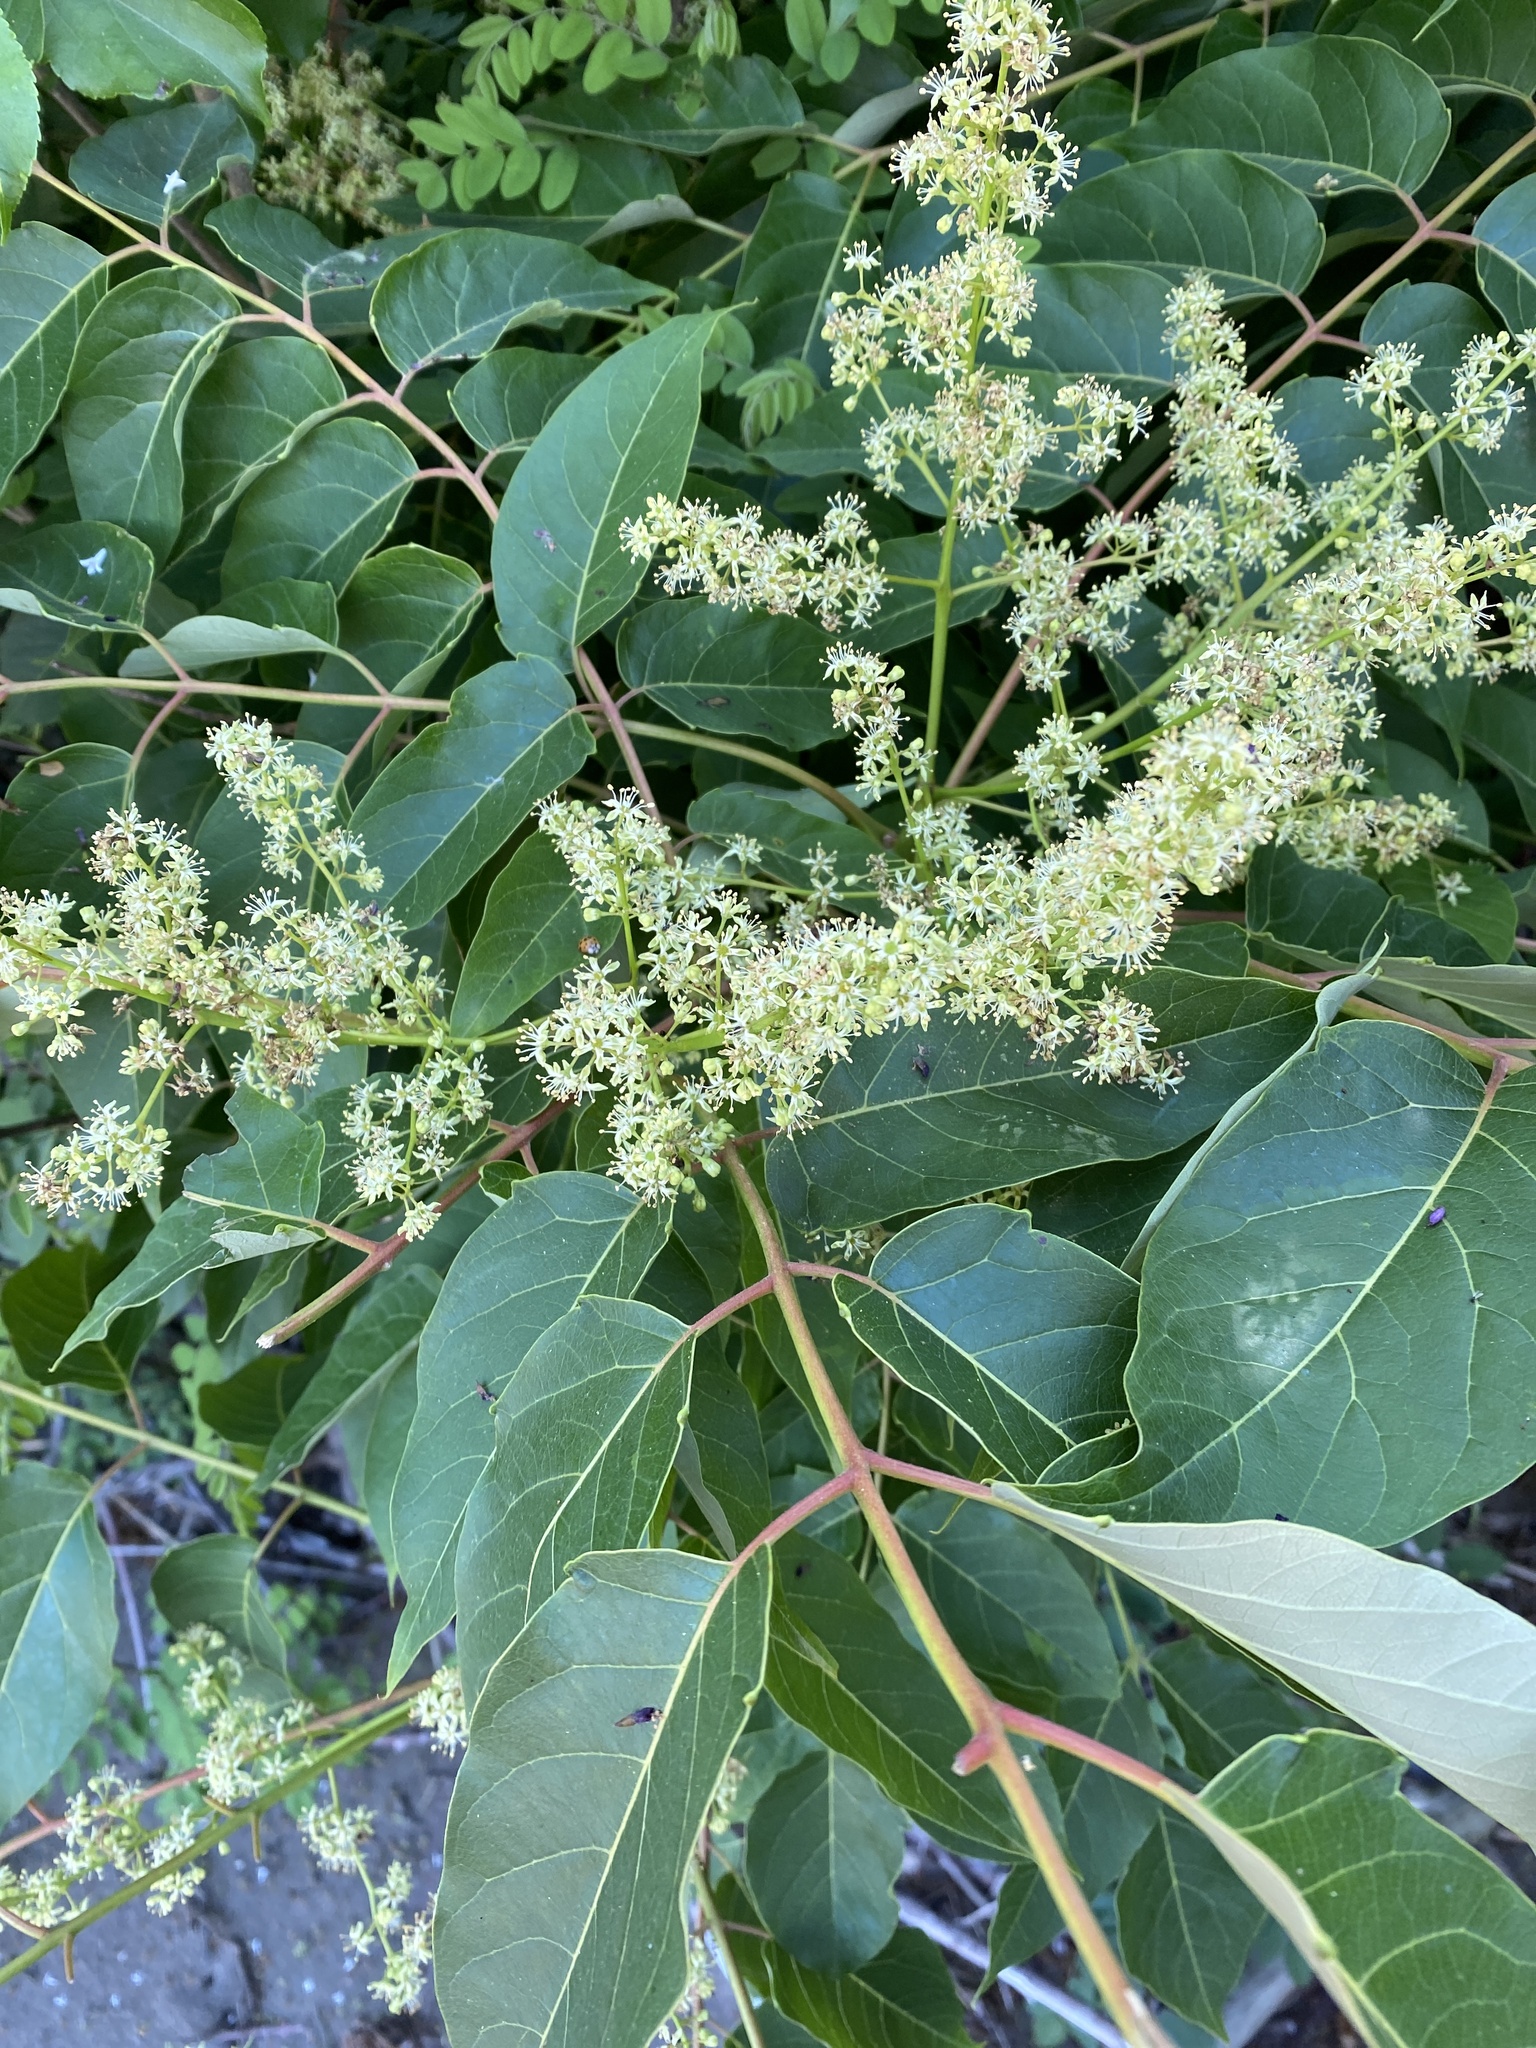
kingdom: Plantae
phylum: Tracheophyta
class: Magnoliopsida
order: Sapindales
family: Simaroubaceae
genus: Ailanthus
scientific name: Ailanthus altissima
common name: Tree-of-heaven
